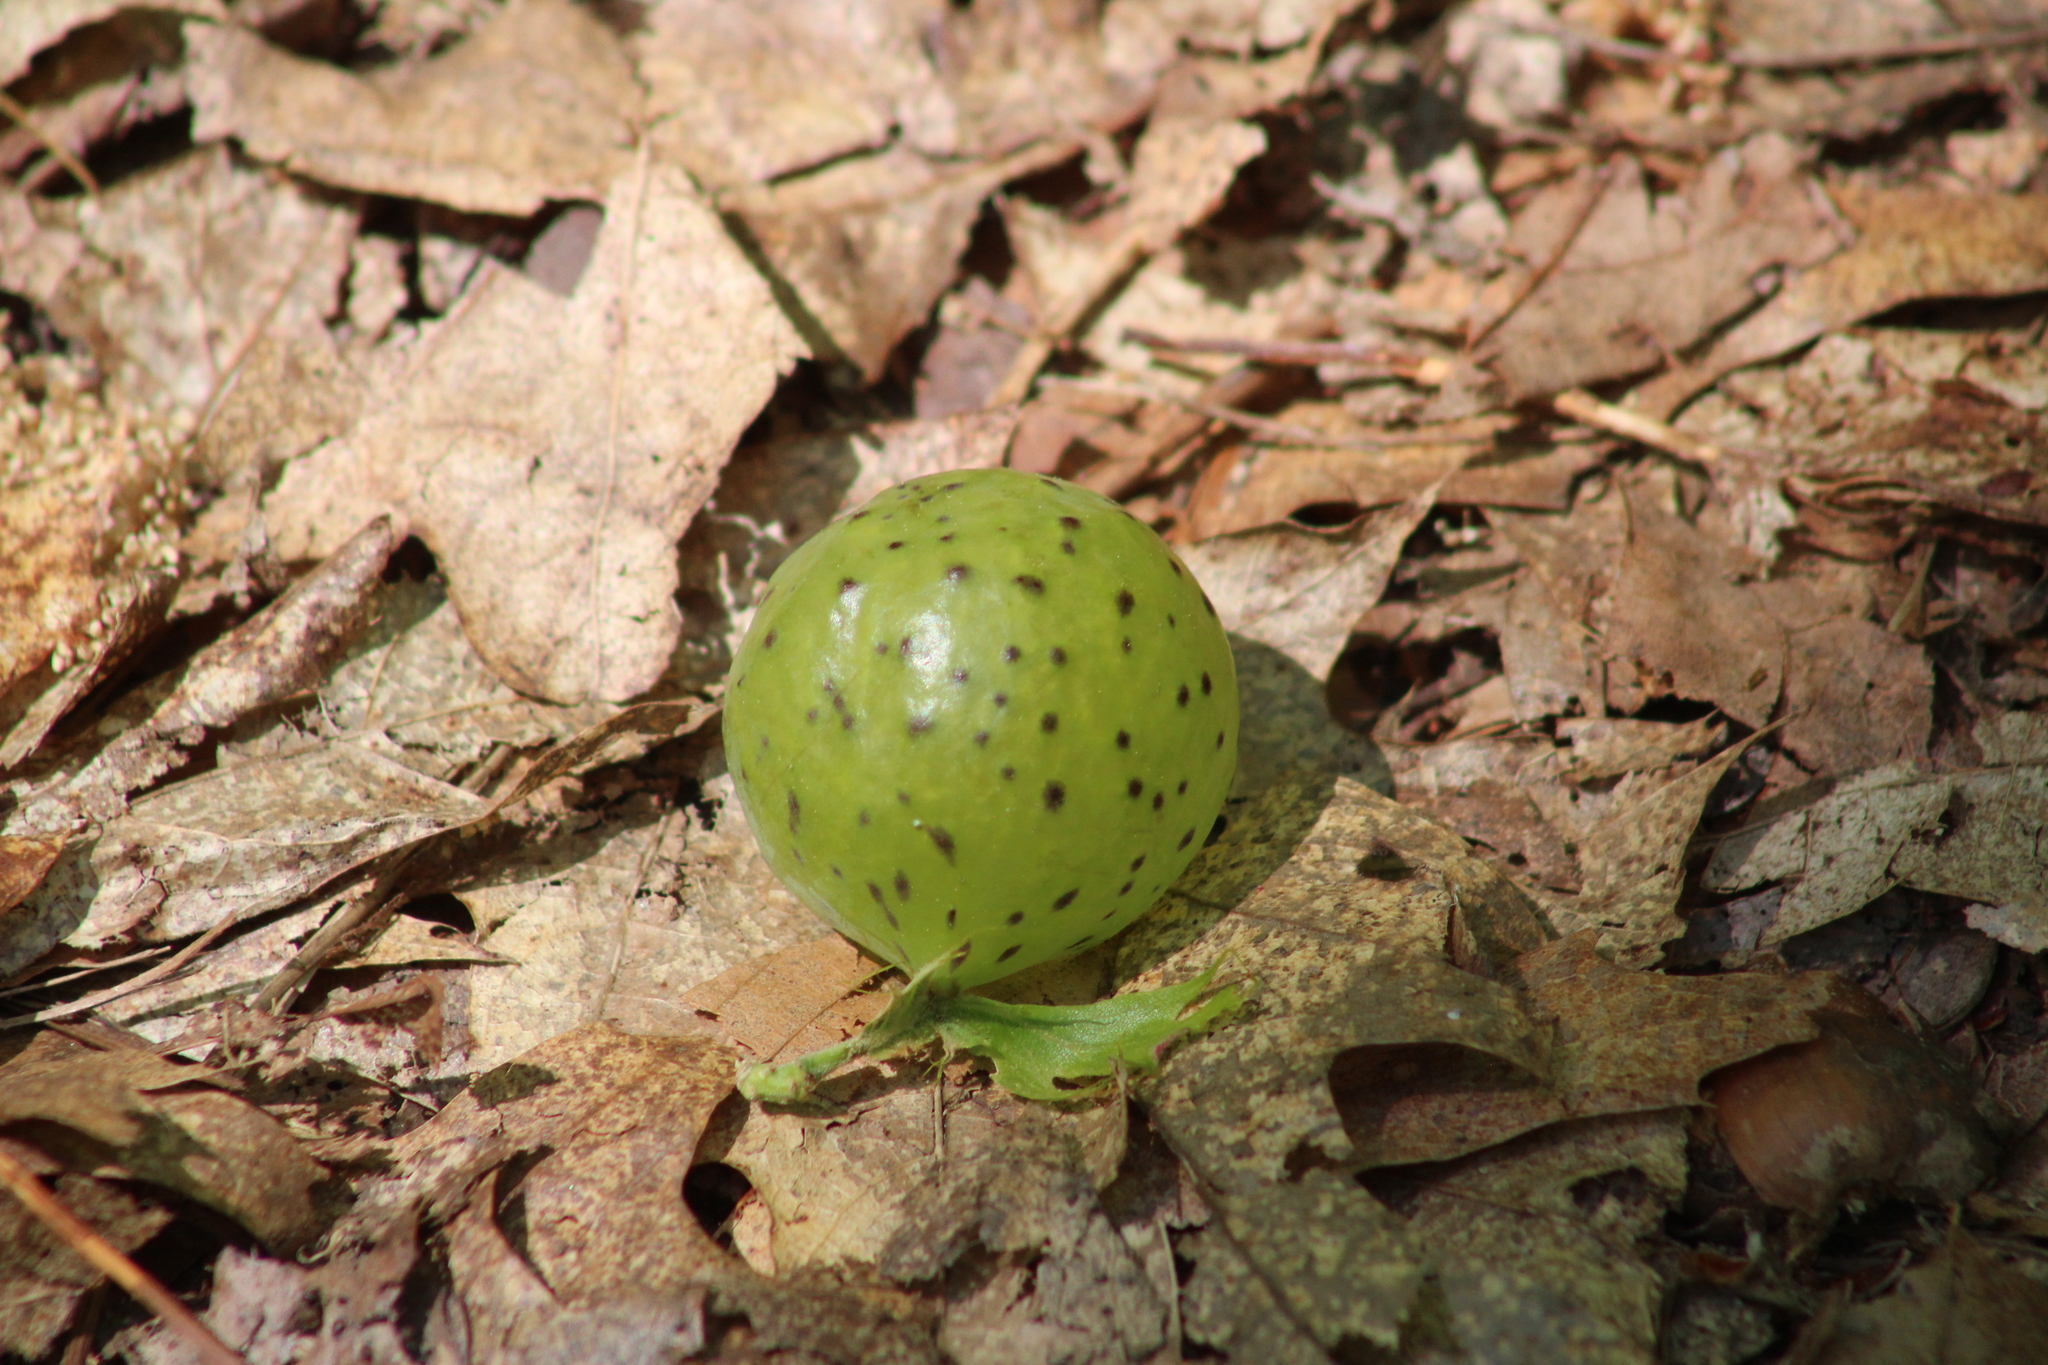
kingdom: Animalia
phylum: Arthropoda
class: Insecta
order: Hymenoptera
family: Cynipidae
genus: Amphibolips
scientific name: Amphibolips
